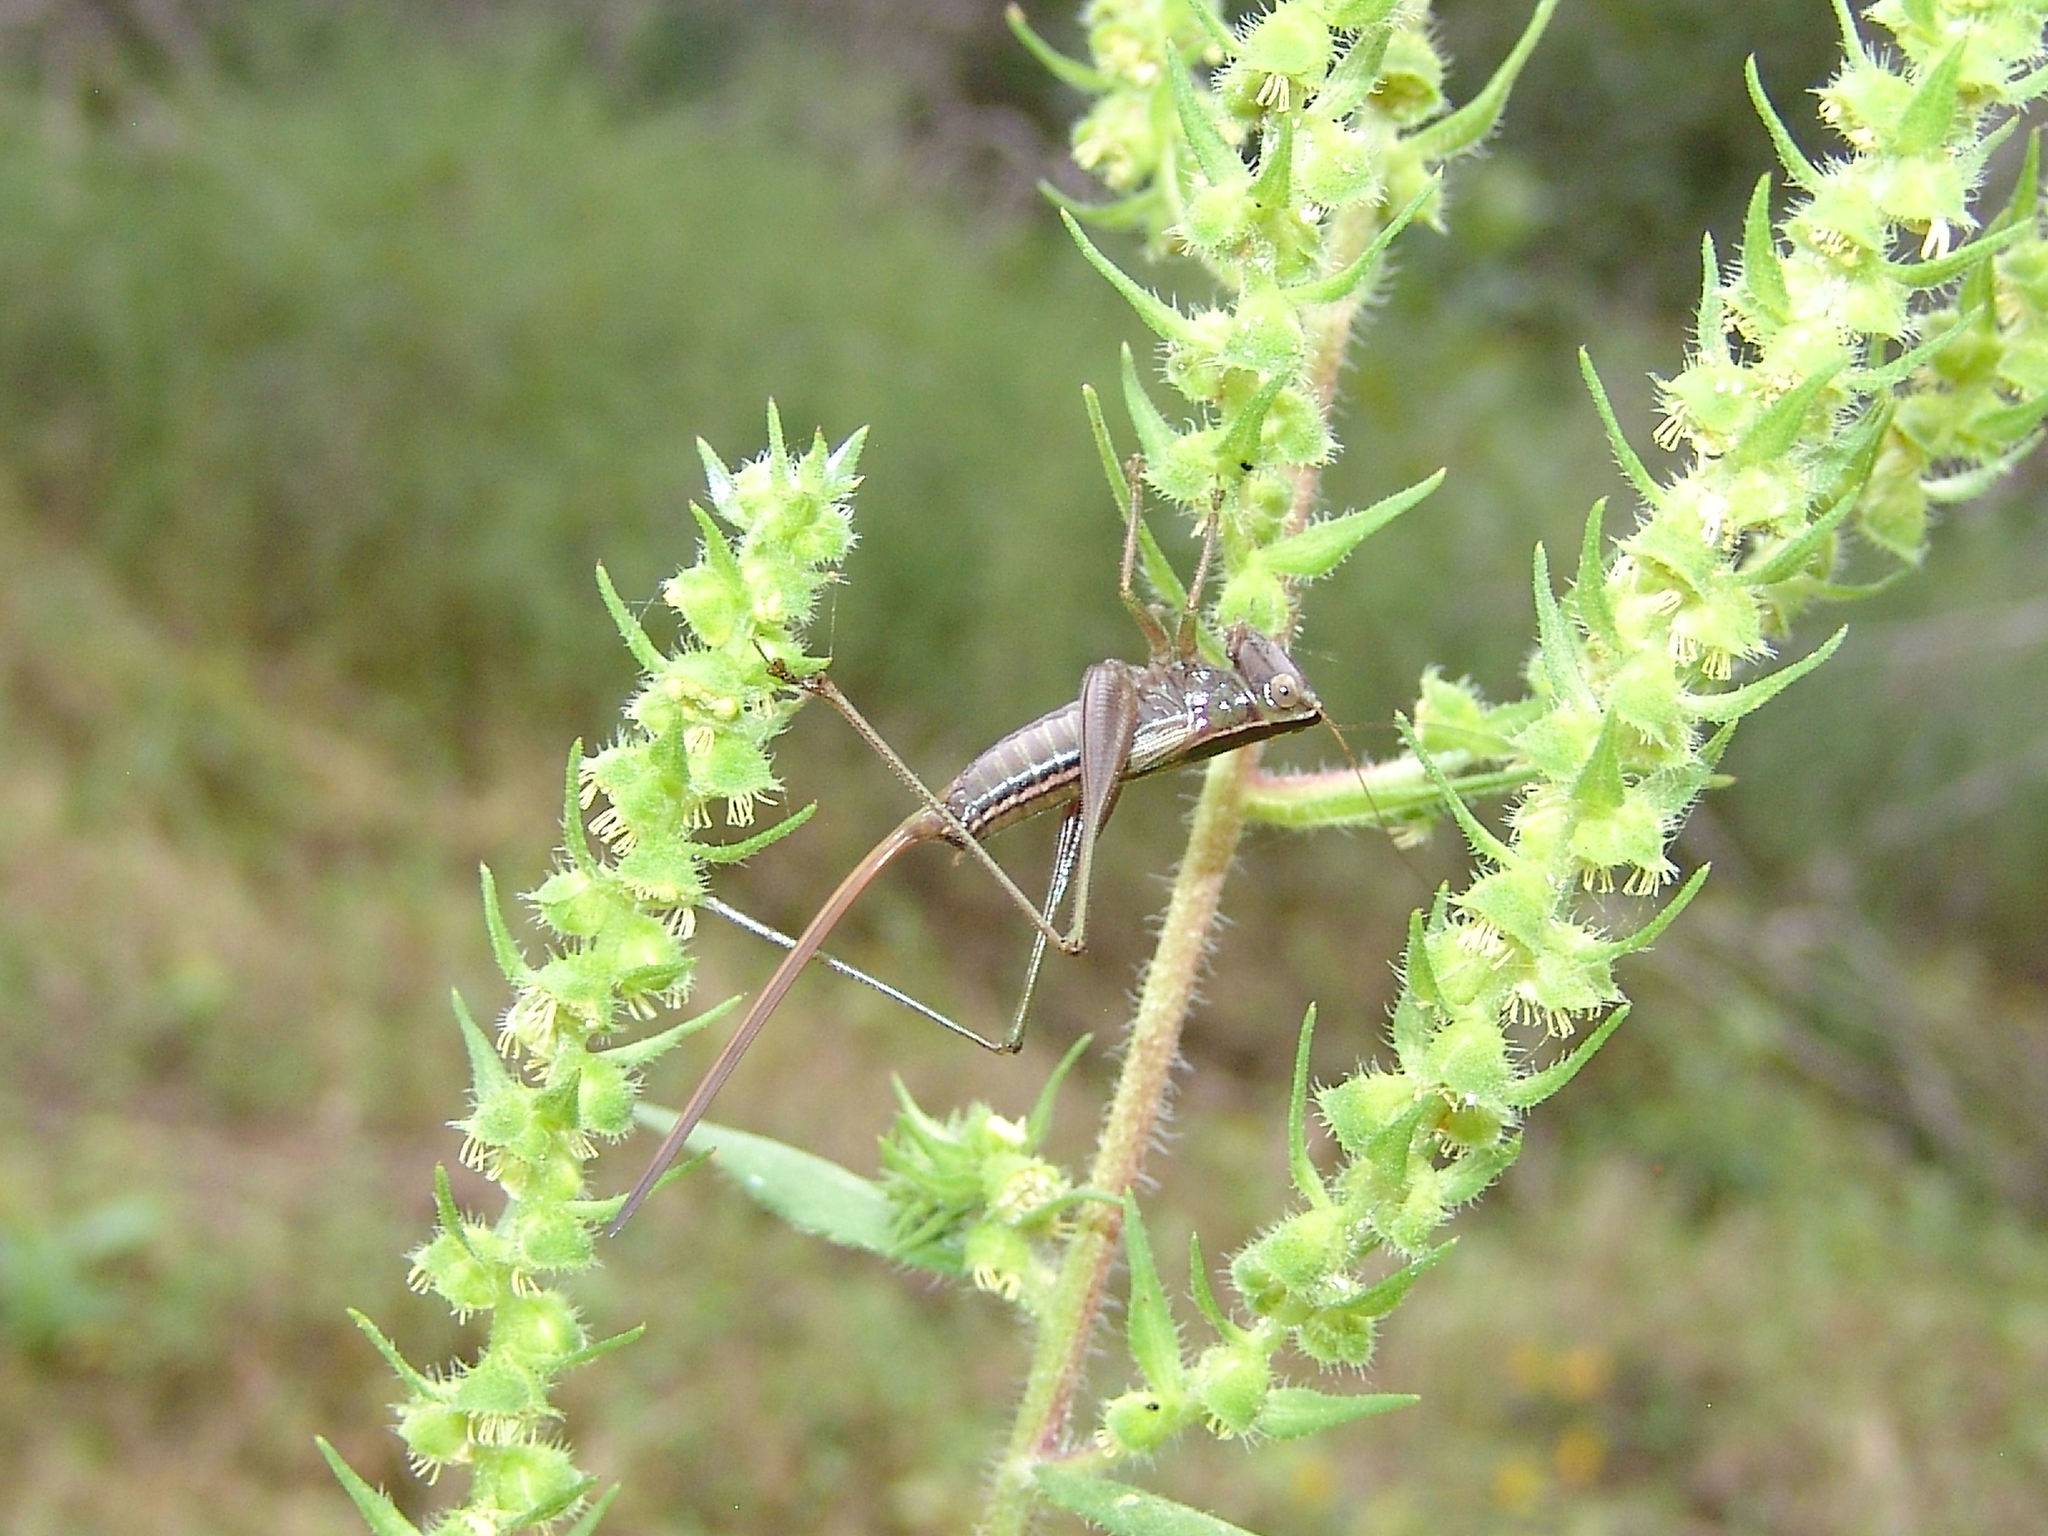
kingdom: Animalia
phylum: Arthropoda
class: Insecta
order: Orthoptera
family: Tettigoniidae
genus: Conocephalus
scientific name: Conocephalus strictus
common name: Straight-lanced katydid
